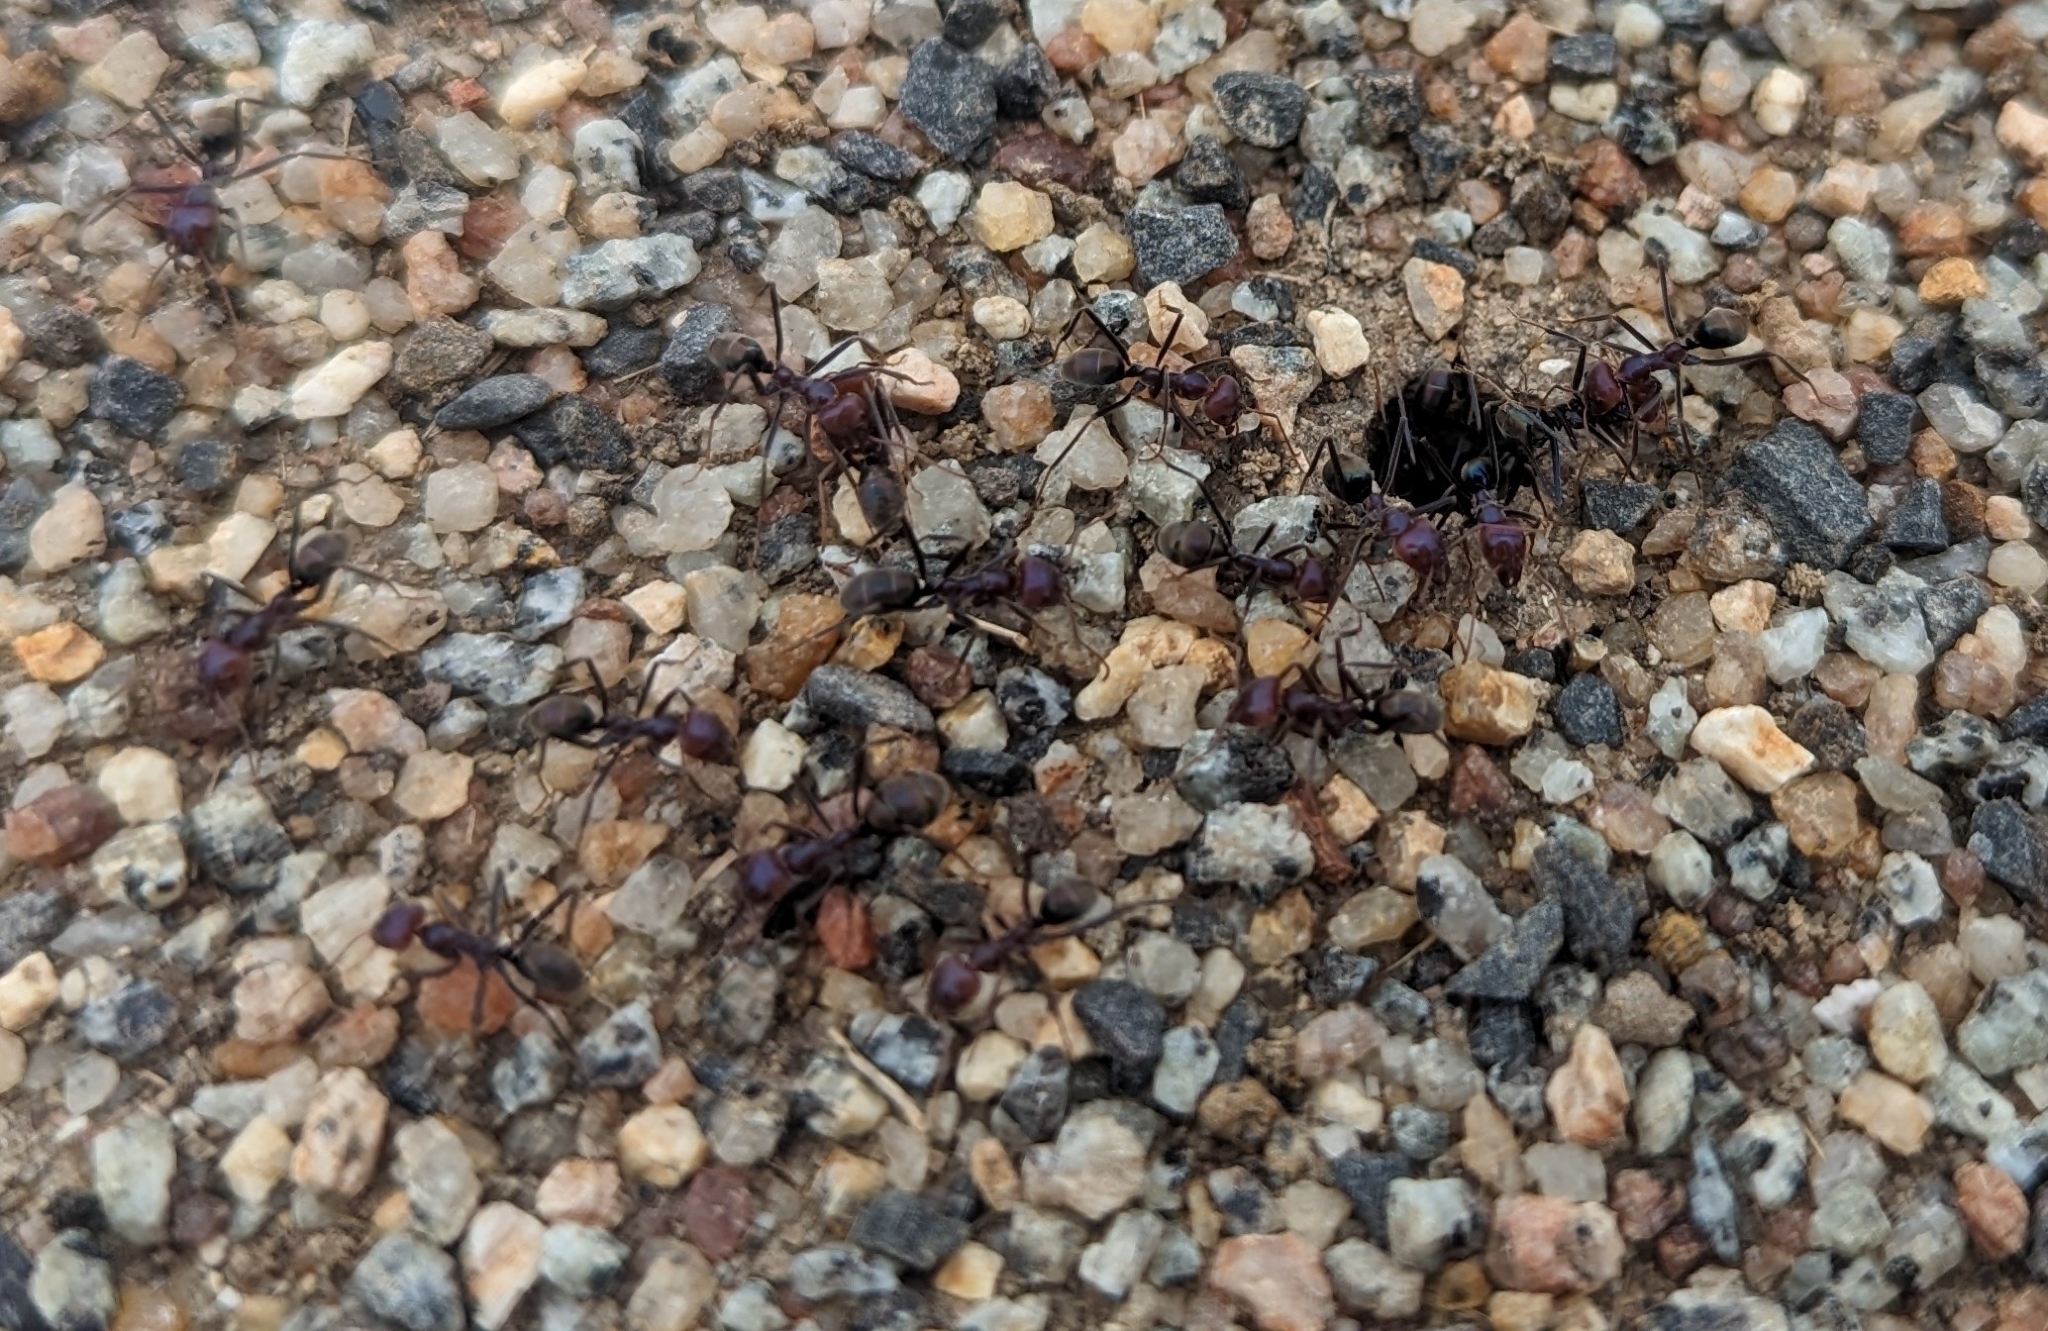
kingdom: Animalia
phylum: Arthropoda
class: Insecta
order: Hymenoptera
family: Formicidae
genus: Iridomyrmex
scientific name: Iridomyrmex purpureus
